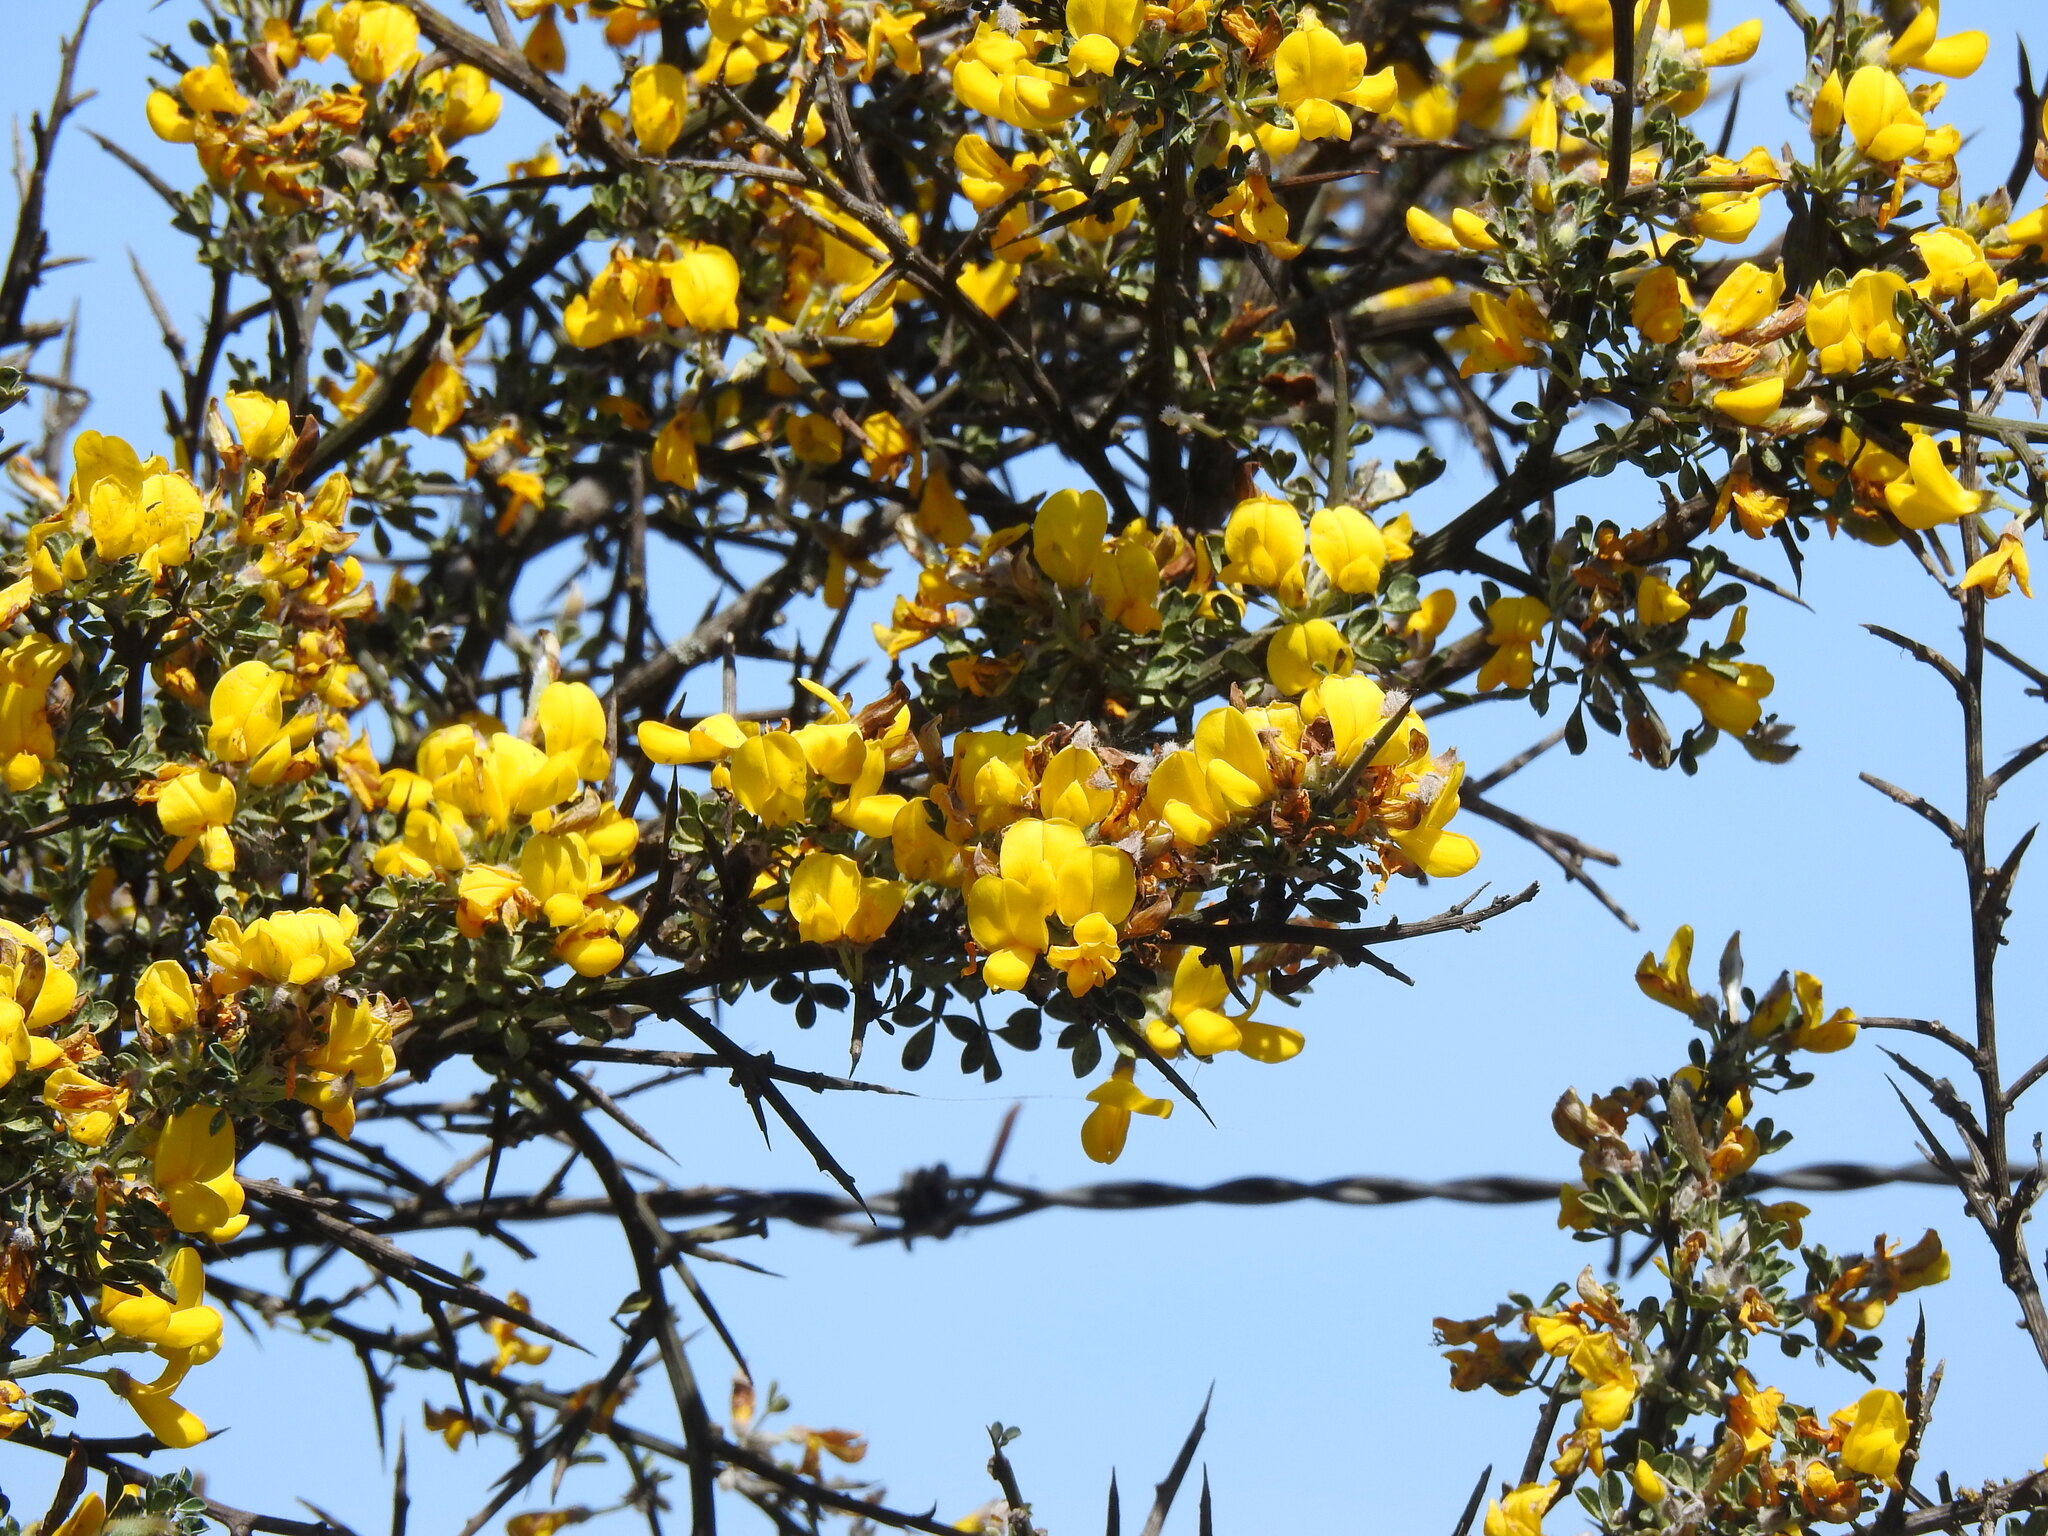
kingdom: Plantae
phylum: Tracheophyta
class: Magnoliopsida
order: Fabales
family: Fabaceae
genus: Calicotome
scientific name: Calicotome villosa
